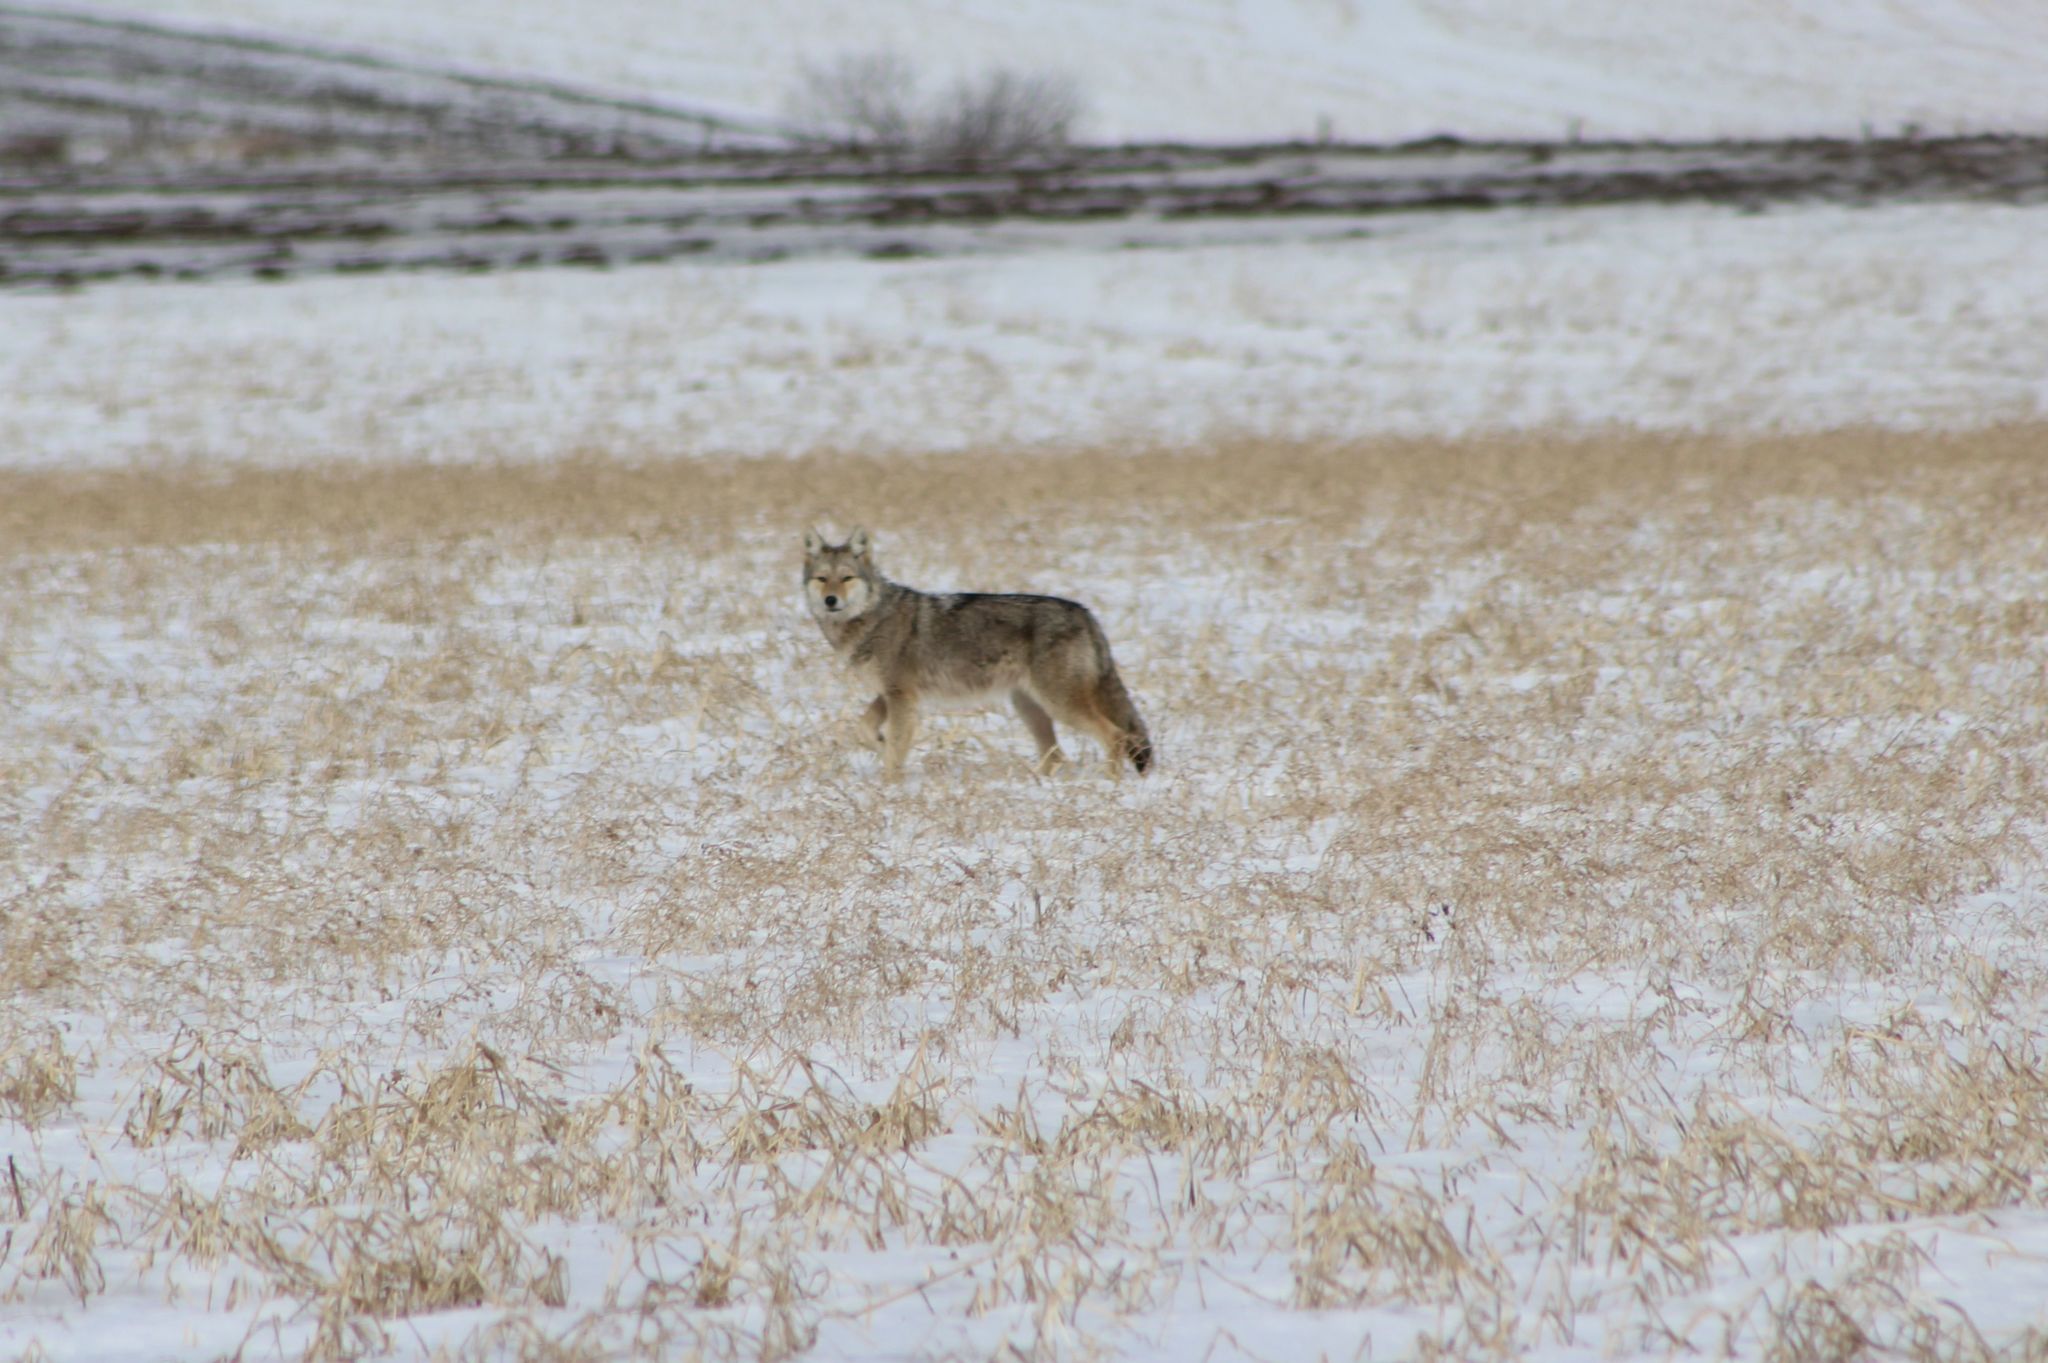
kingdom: Animalia
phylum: Chordata
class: Mammalia
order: Carnivora
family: Canidae
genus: Canis
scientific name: Canis latrans
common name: Coyote
